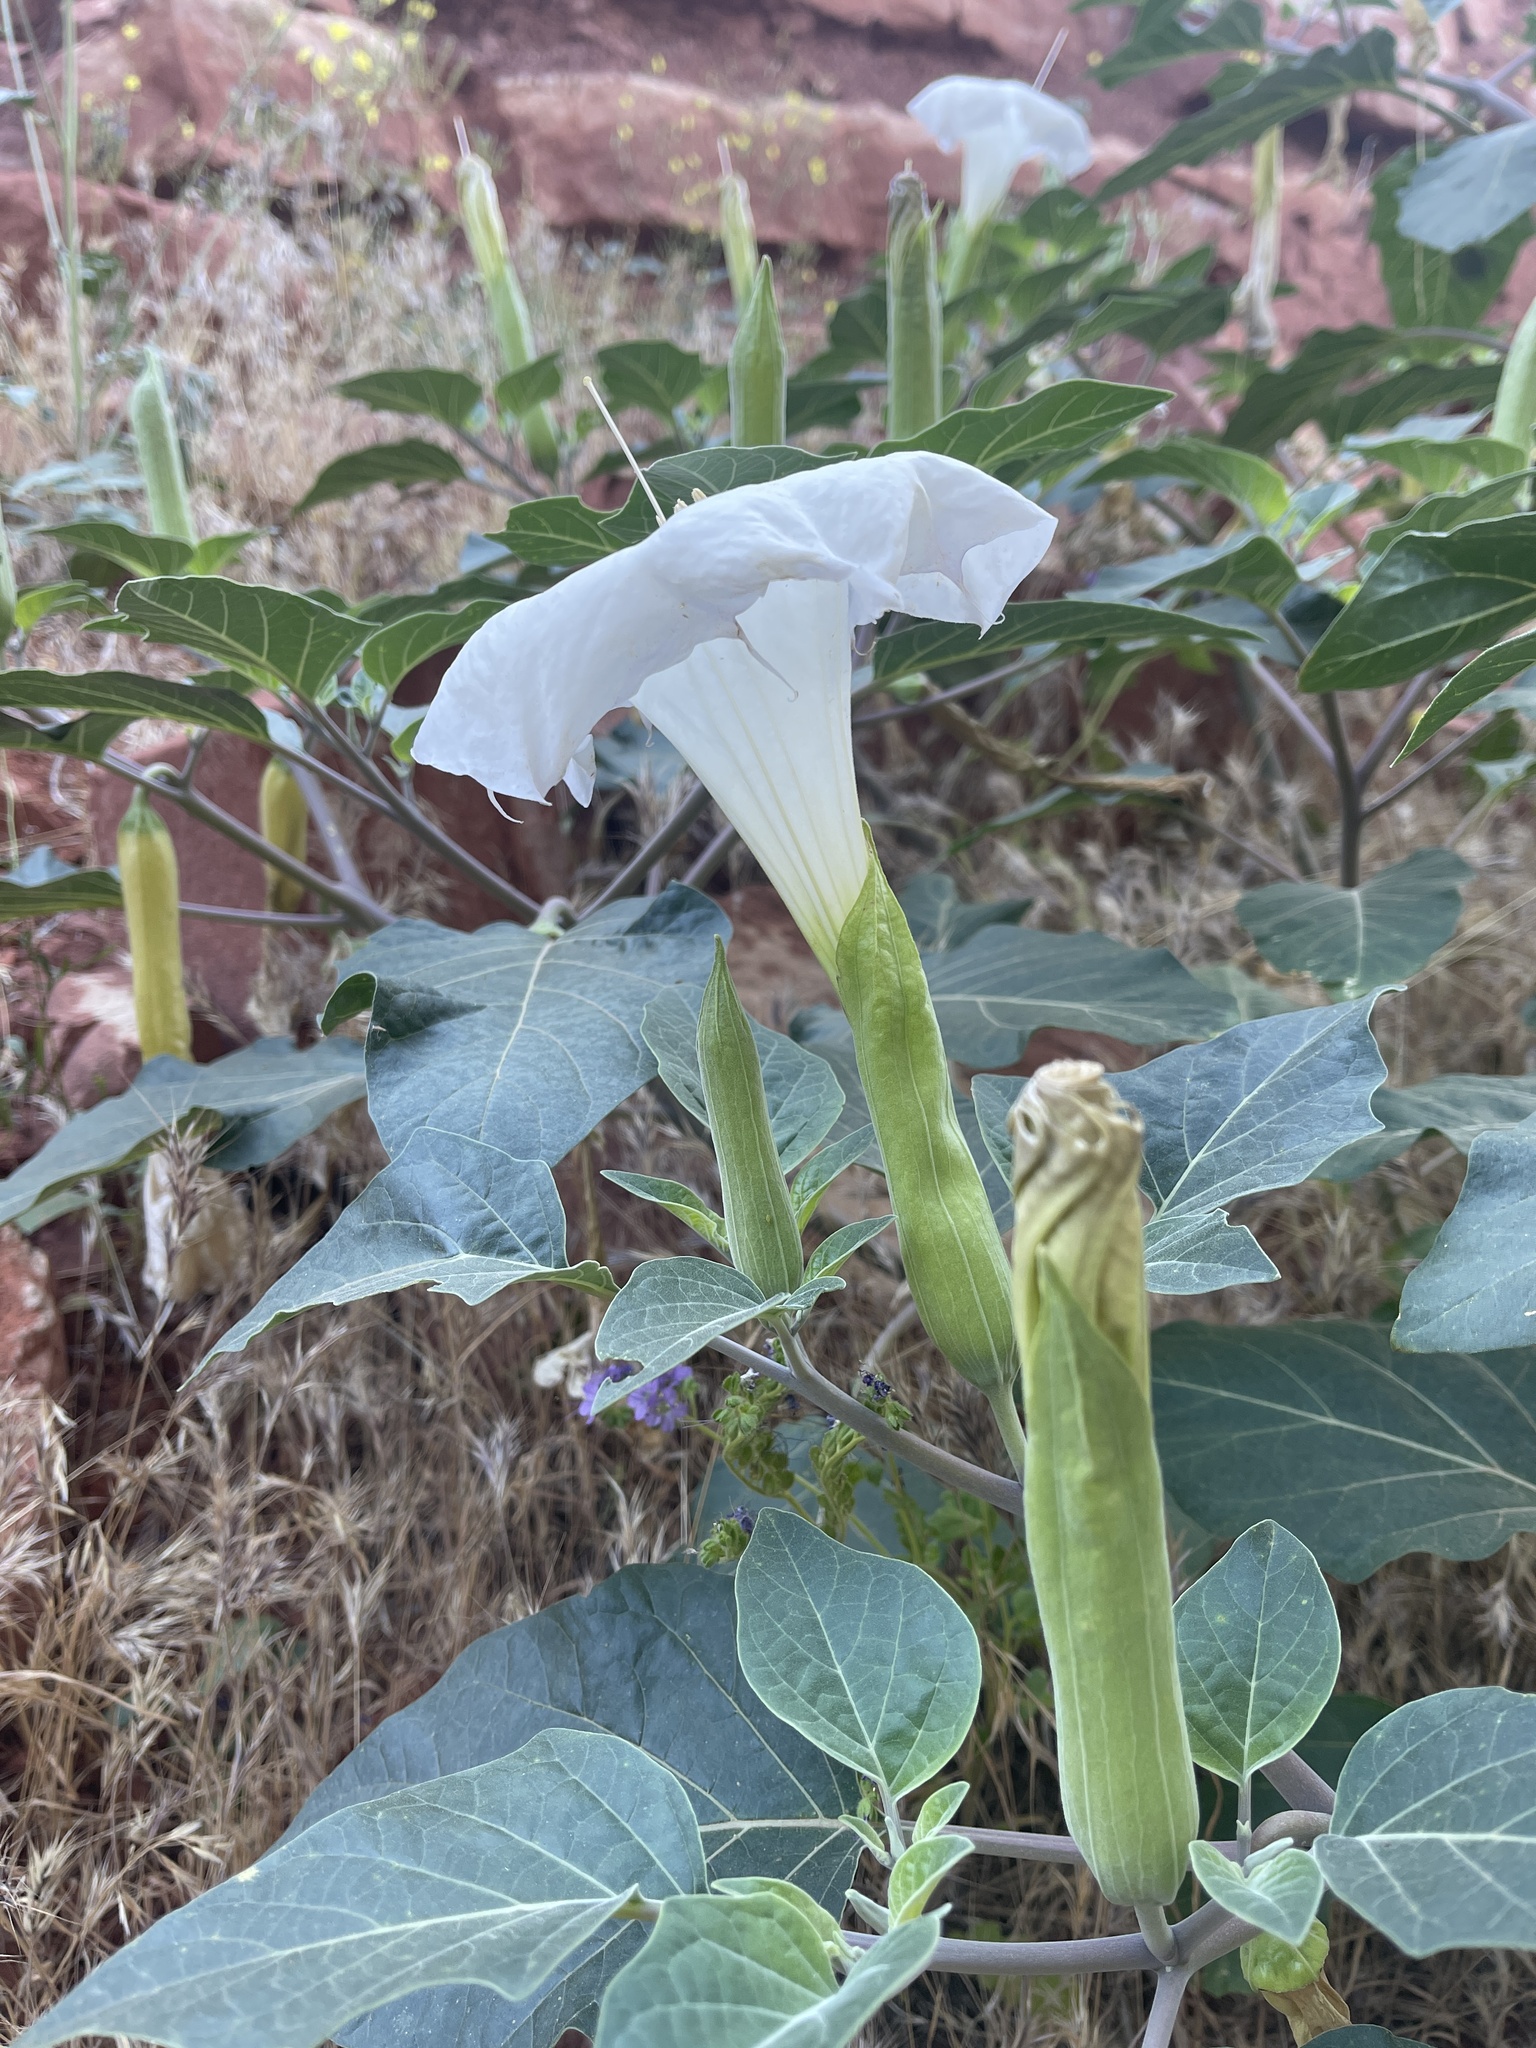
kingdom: Plantae
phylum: Tracheophyta
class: Magnoliopsida
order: Solanales
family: Solanaceae
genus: Datura
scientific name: Datura wrightii
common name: Sacred thorn-apple
